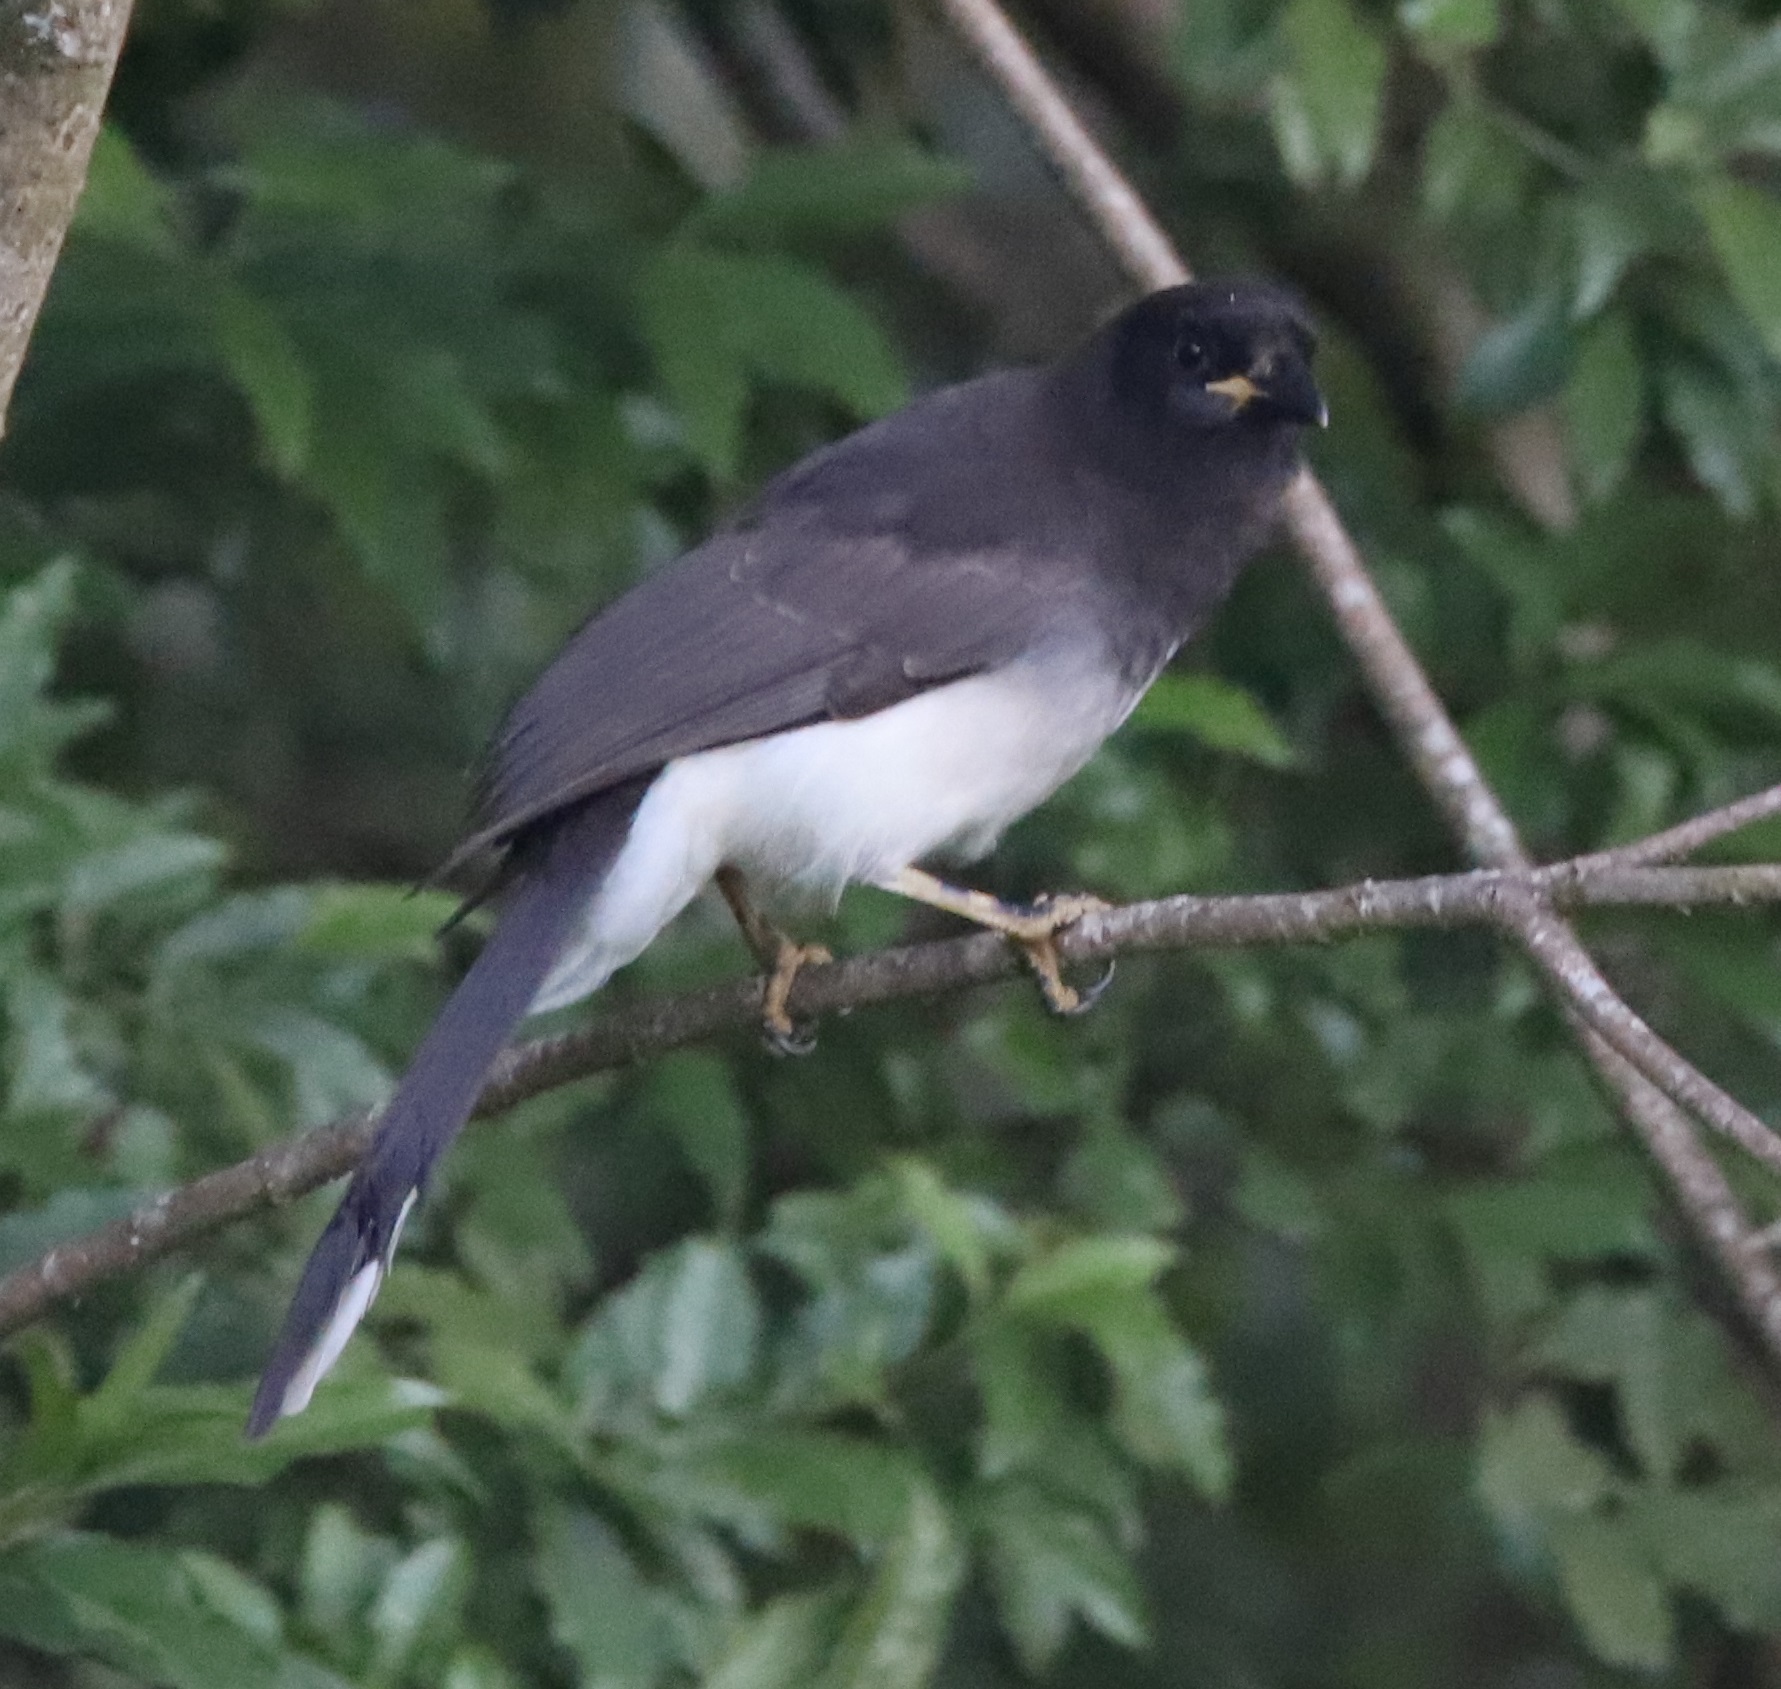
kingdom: Animalia
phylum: Chordata
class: Aves
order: Passeriformes
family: Corvidae
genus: Psilorhinus
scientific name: Psilorhinus morio
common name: Brown jay
